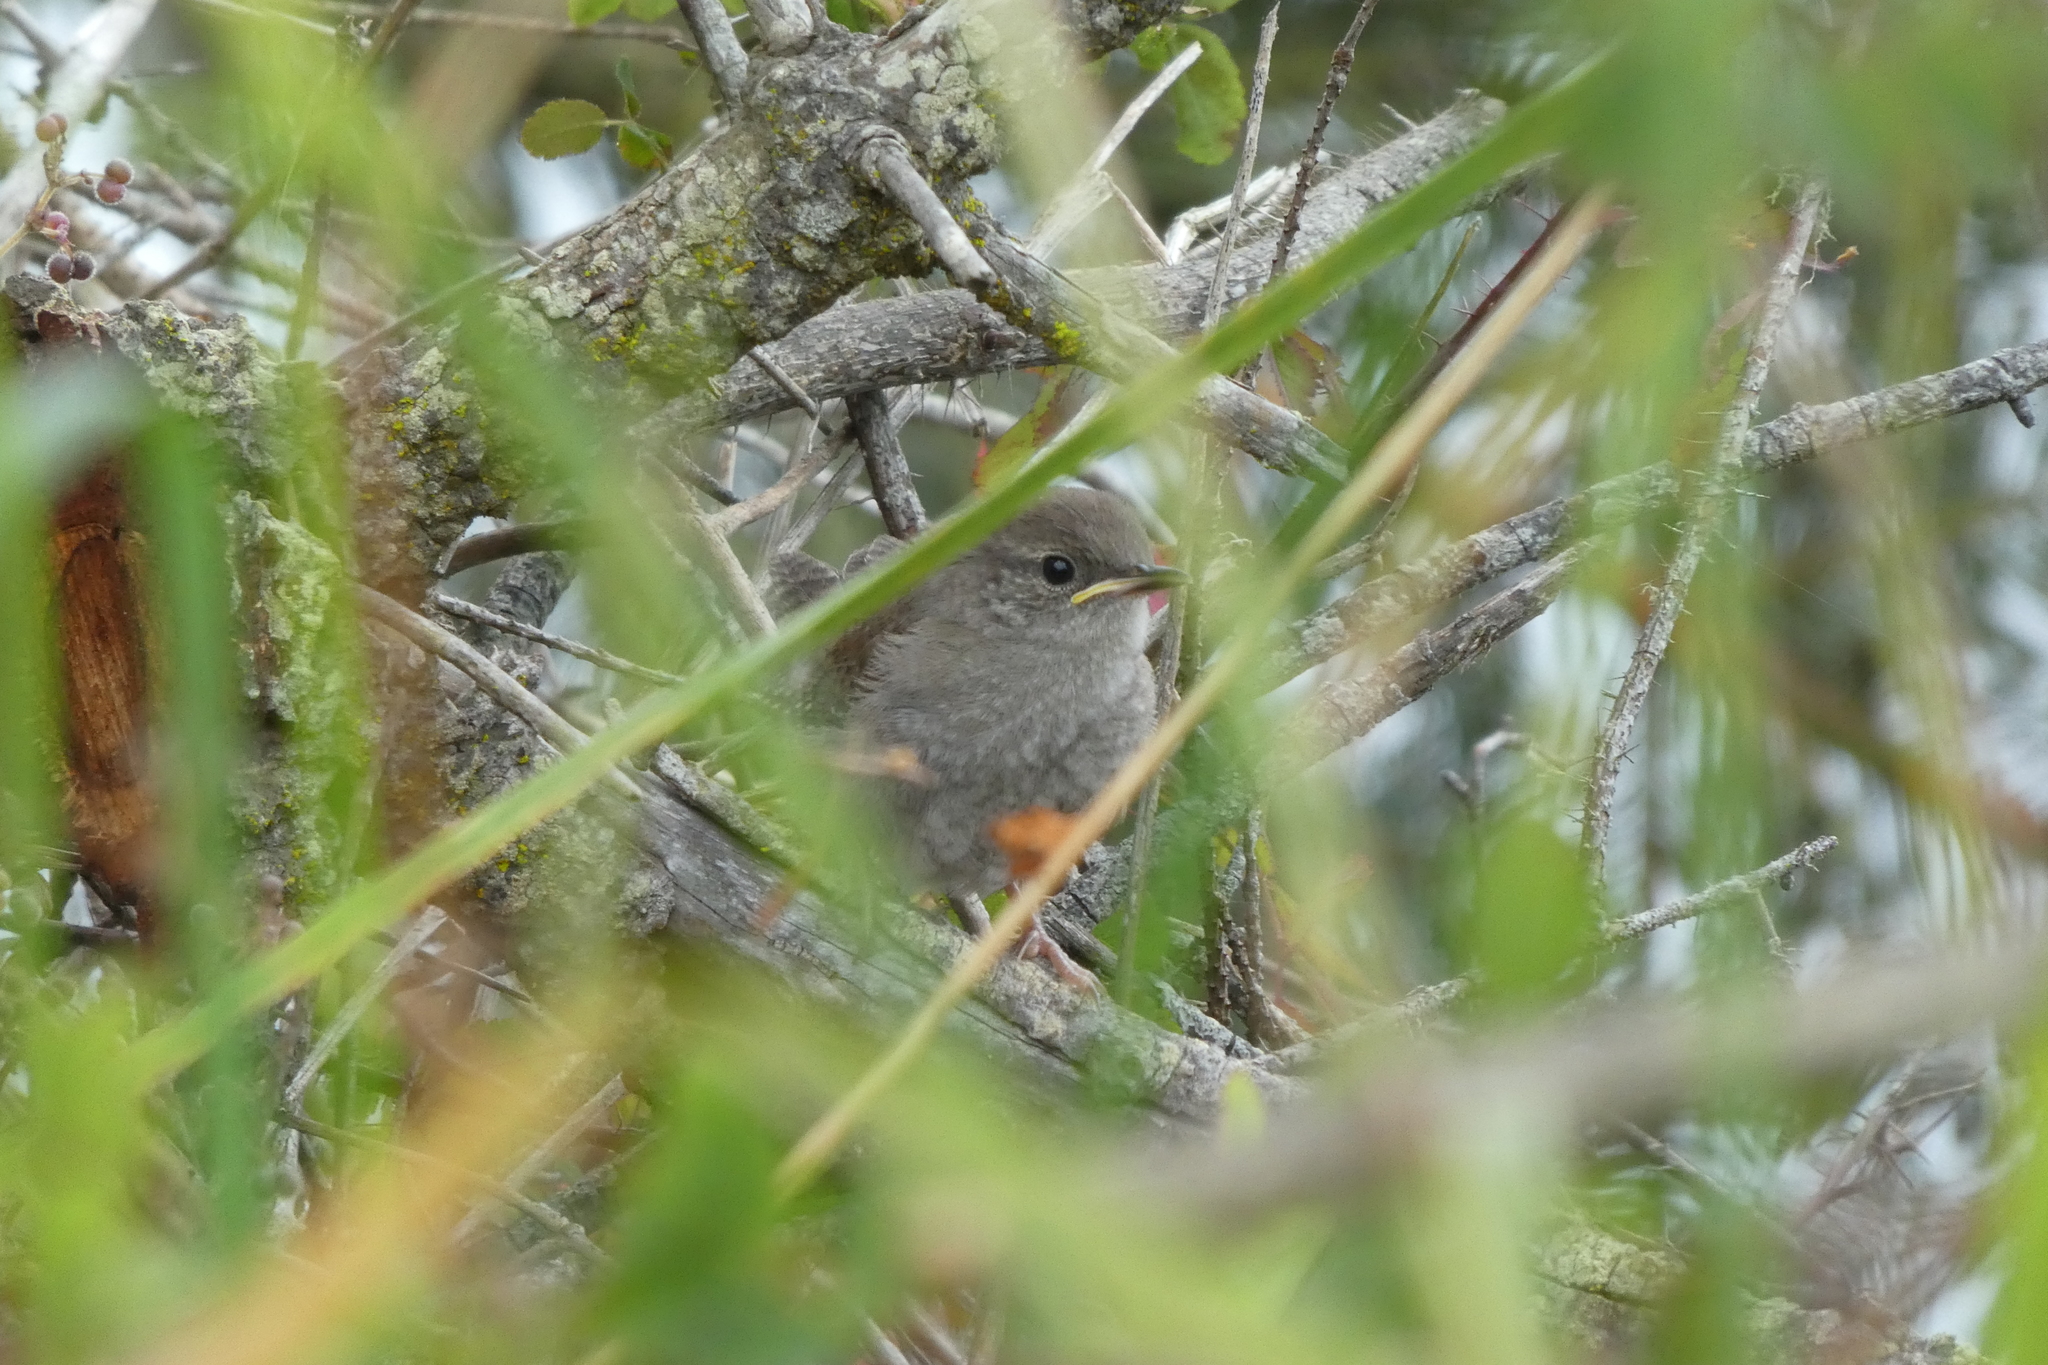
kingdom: Animalia
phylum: Chordata
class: Aves
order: Passeriformes
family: Troglodytidae
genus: Thryomanes
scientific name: Thryomanes bewickii
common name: Bewick's wren
